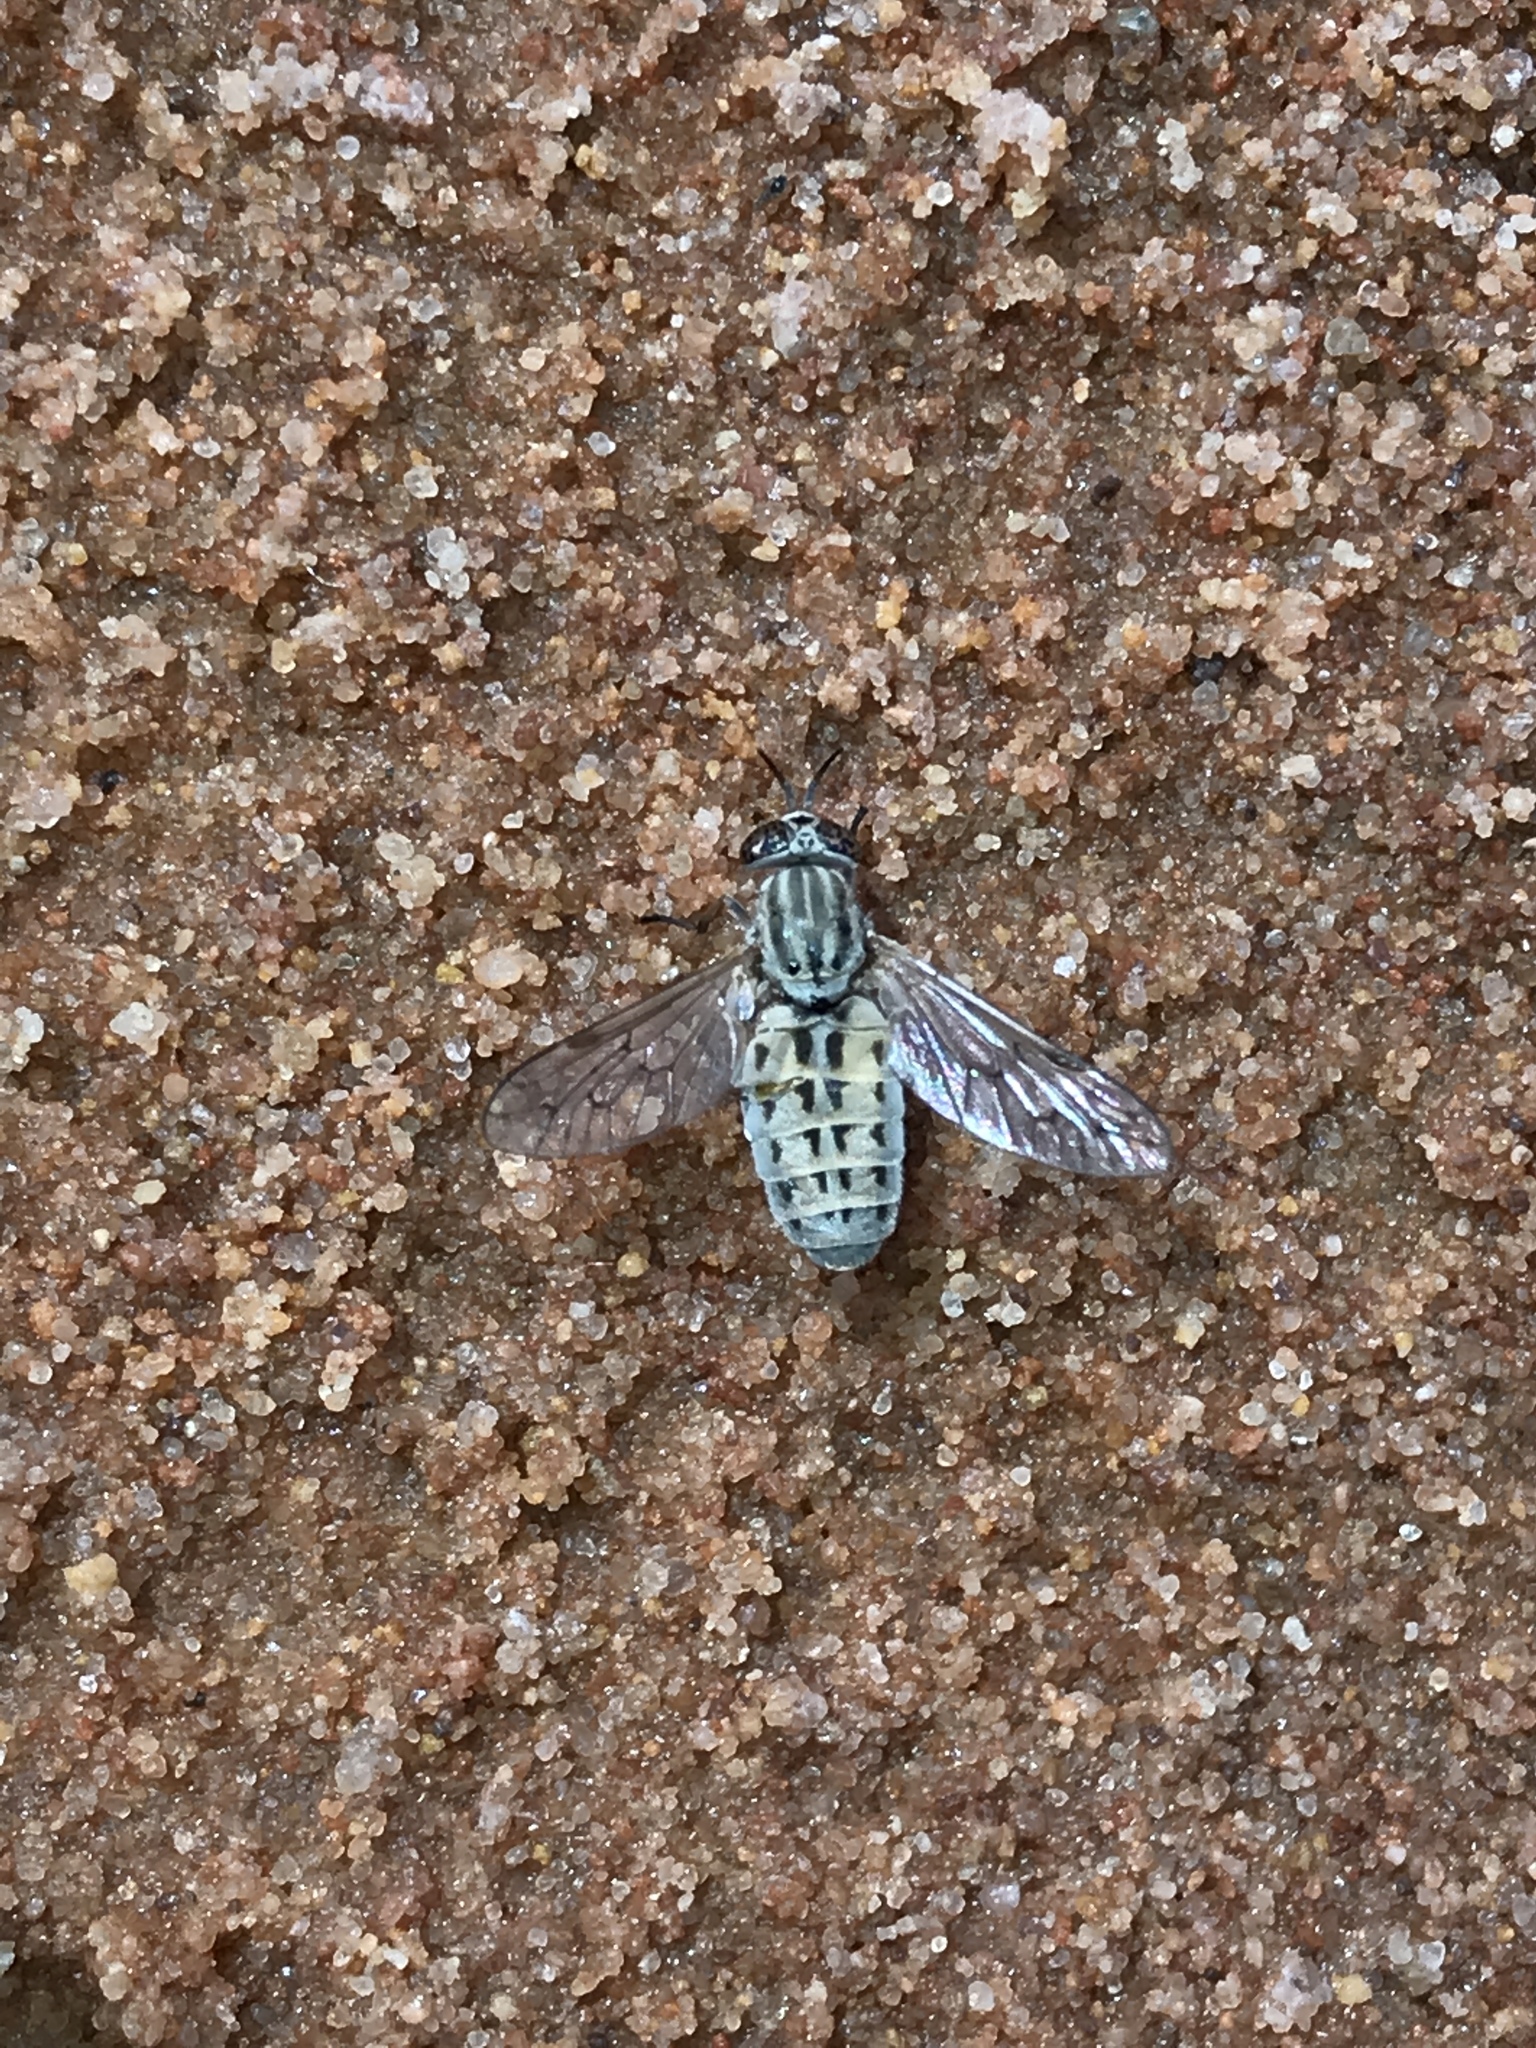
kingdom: Animalia
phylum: Arthropoda
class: Insecta
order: Diptera
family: Tabanidae
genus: Silvius
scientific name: Silvius quadrivittatus
